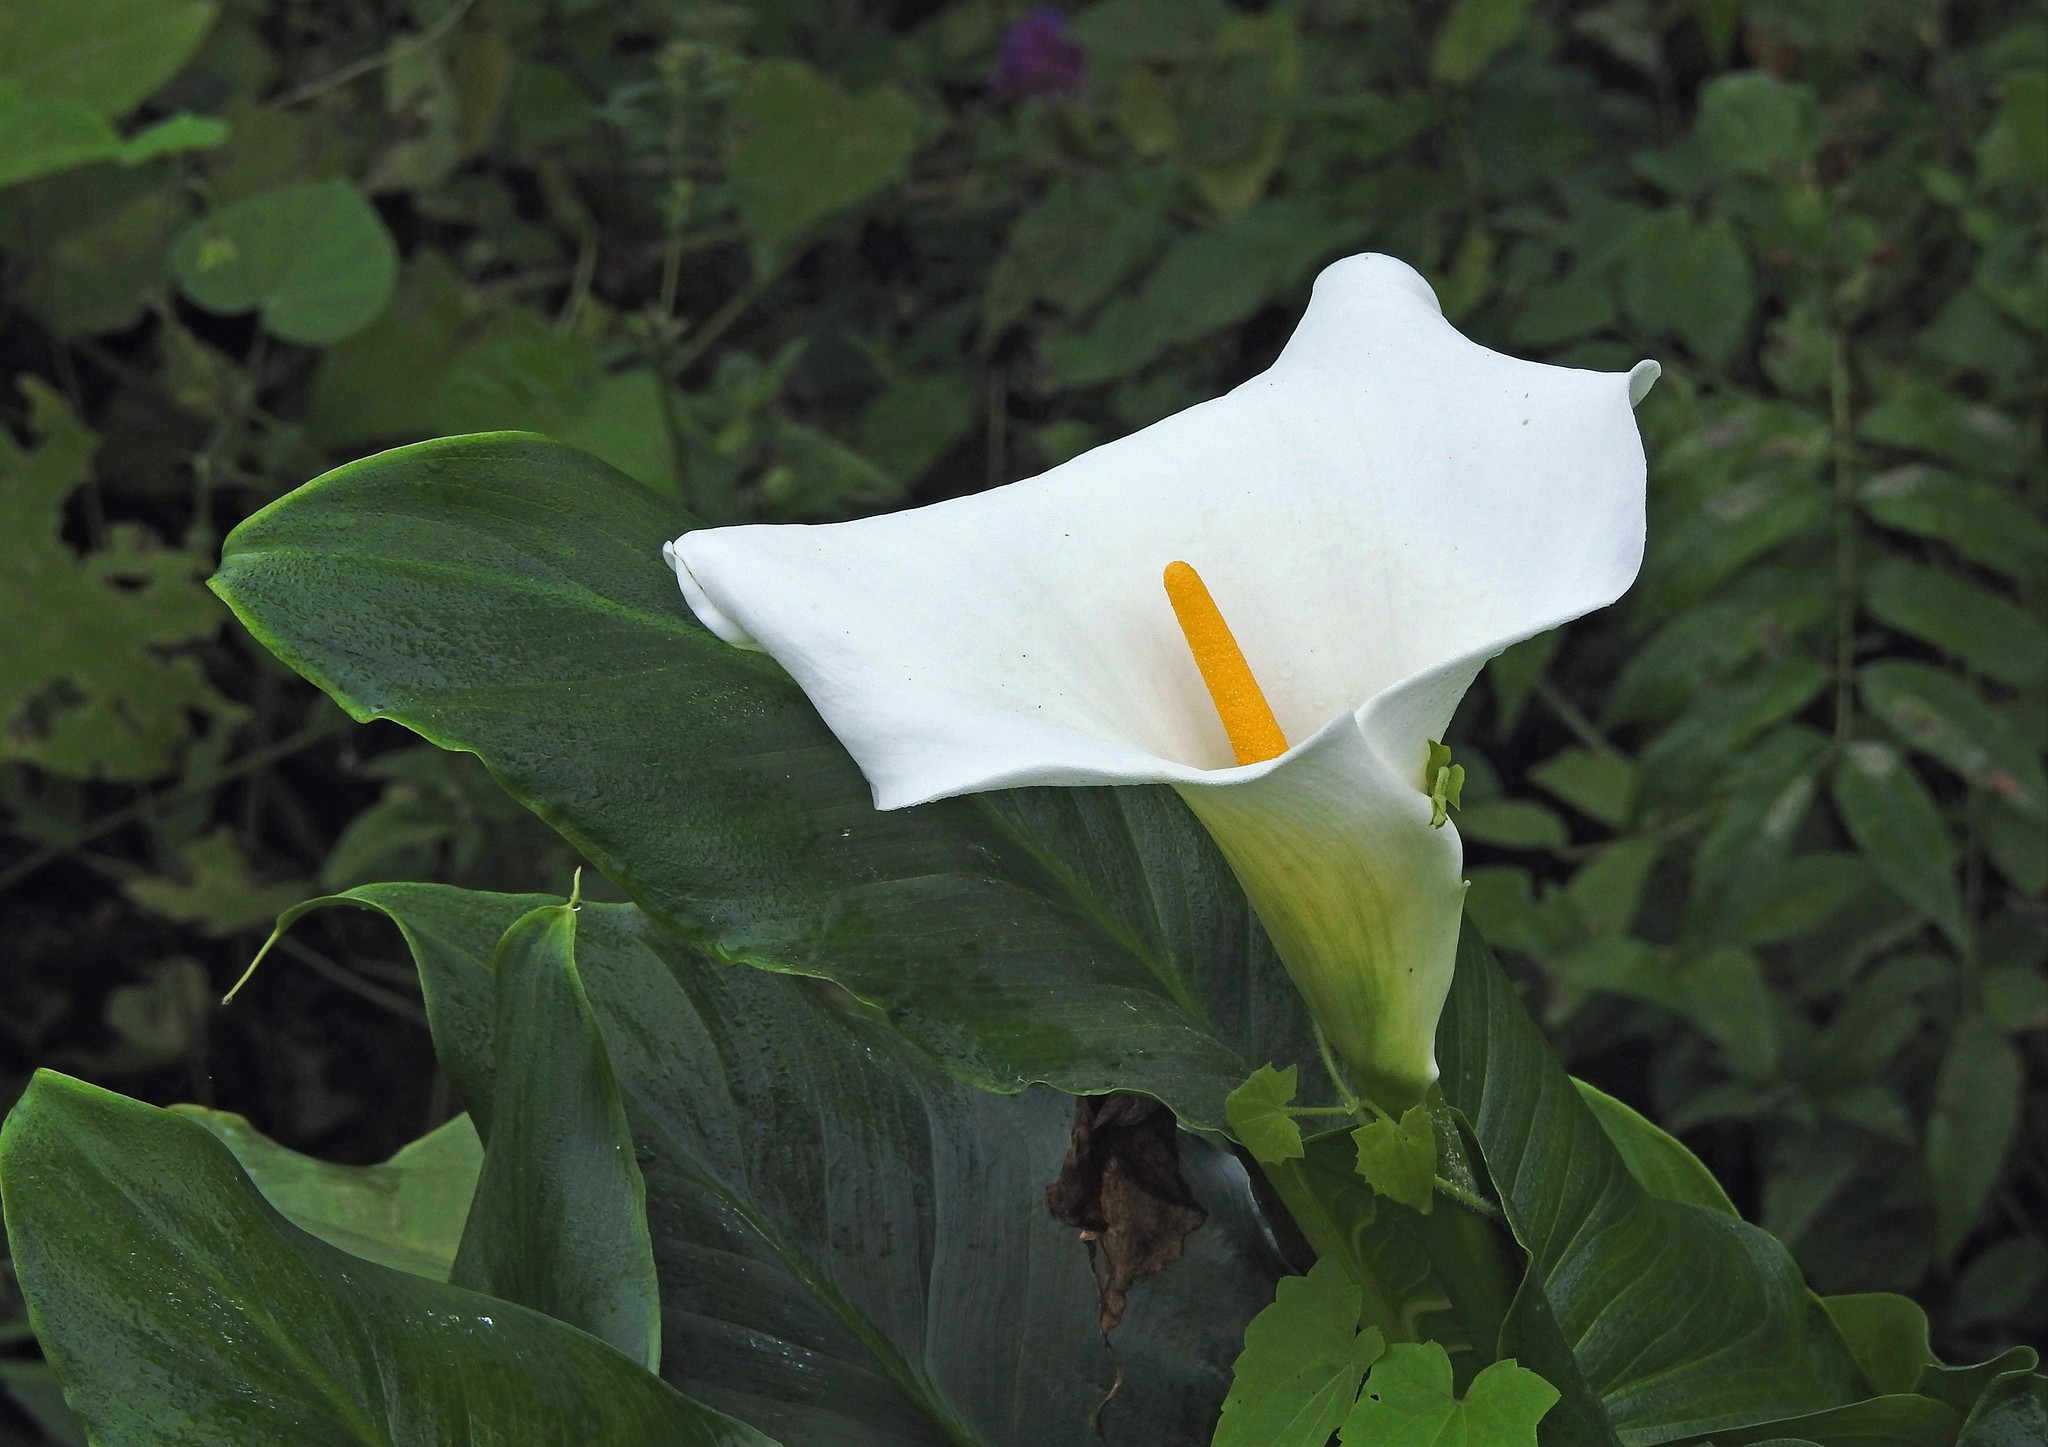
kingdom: Plantae
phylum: Tracheophyta
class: Liliopsida
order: Alismatales
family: Araceae
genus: Zantedeschia
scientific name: Zantedeschia aethiopica
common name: Altar-lily
